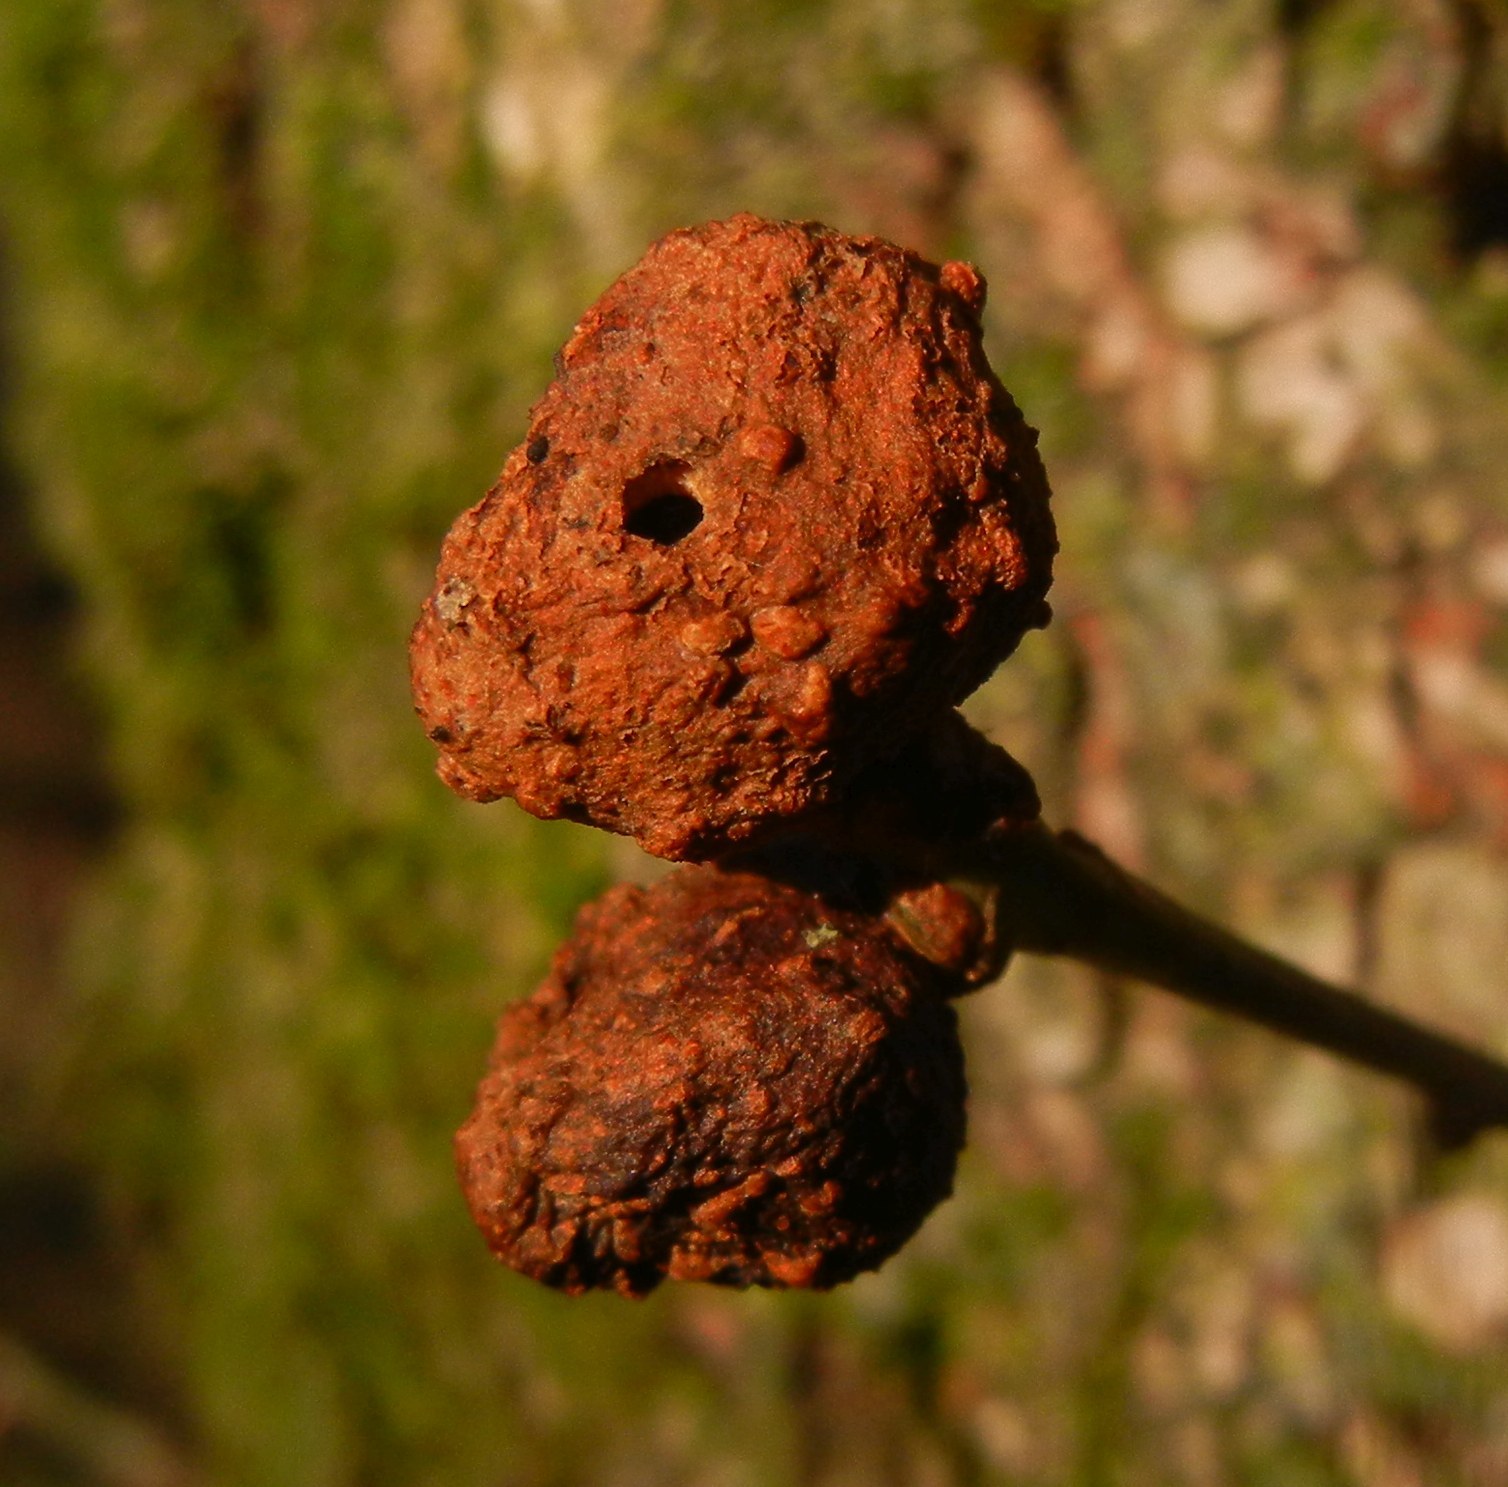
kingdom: Animalia
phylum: Arthropoda
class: Insecta
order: Hymenoptera
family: Cynipidae
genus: Andricus
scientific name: Andricus lignicolus
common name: Cola-nut gall
